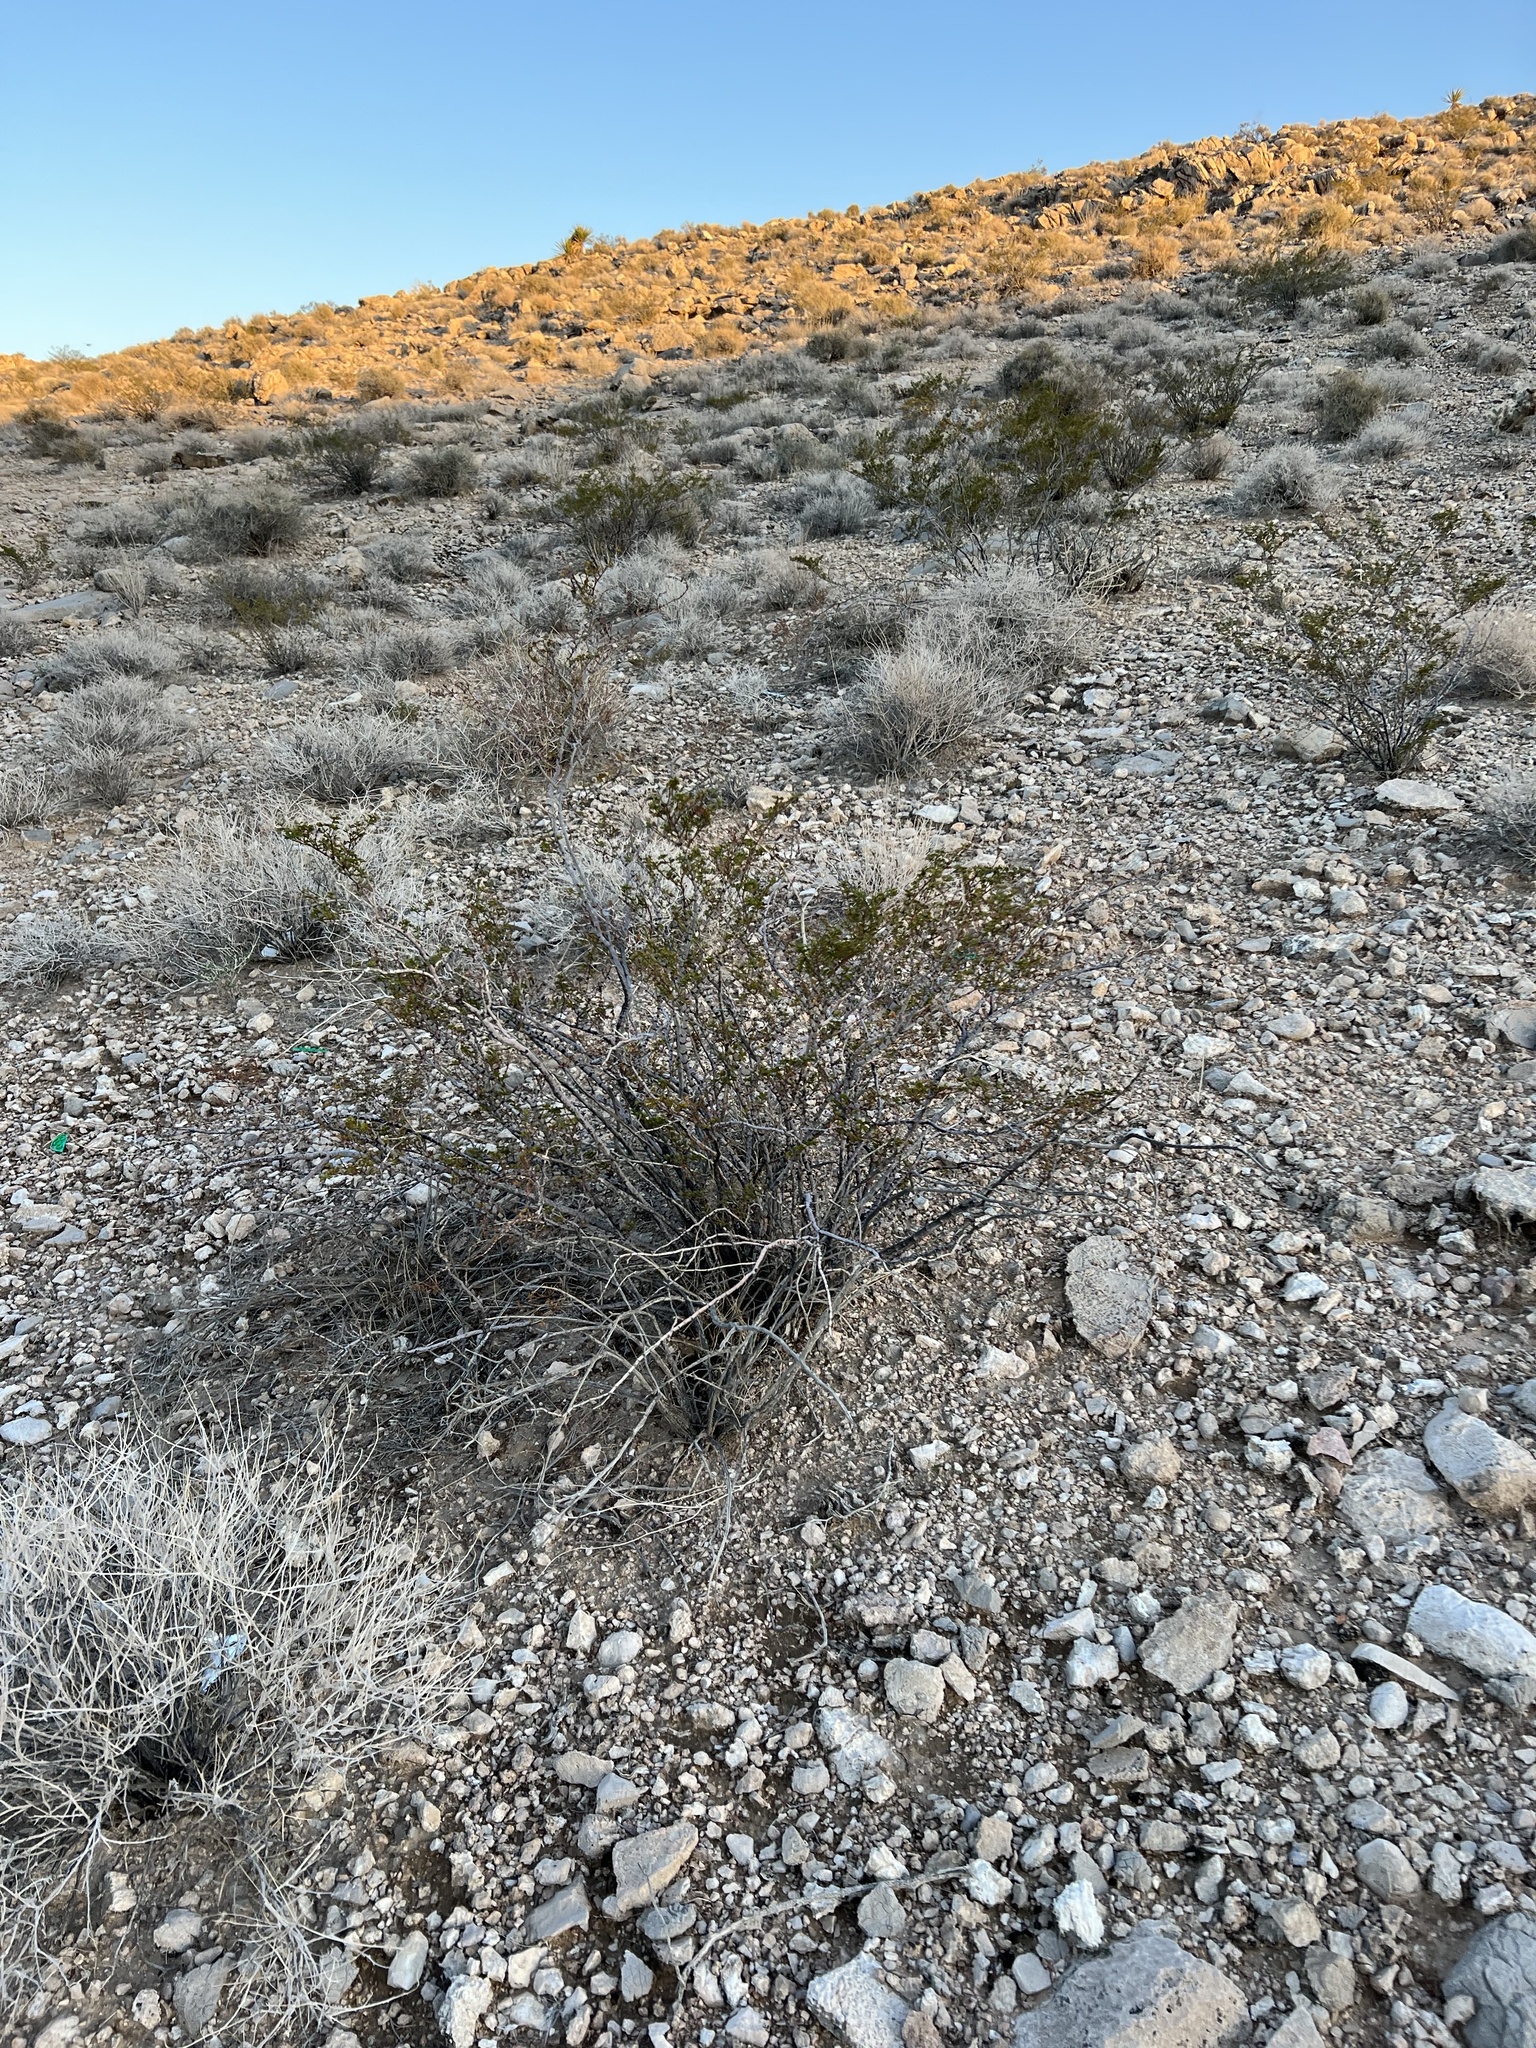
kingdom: Plantae
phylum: Tracheophyta
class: Magnoliopsida
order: Zygophyllales
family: Zygophyllaceae
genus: Larrea
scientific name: Larrea tridentata
